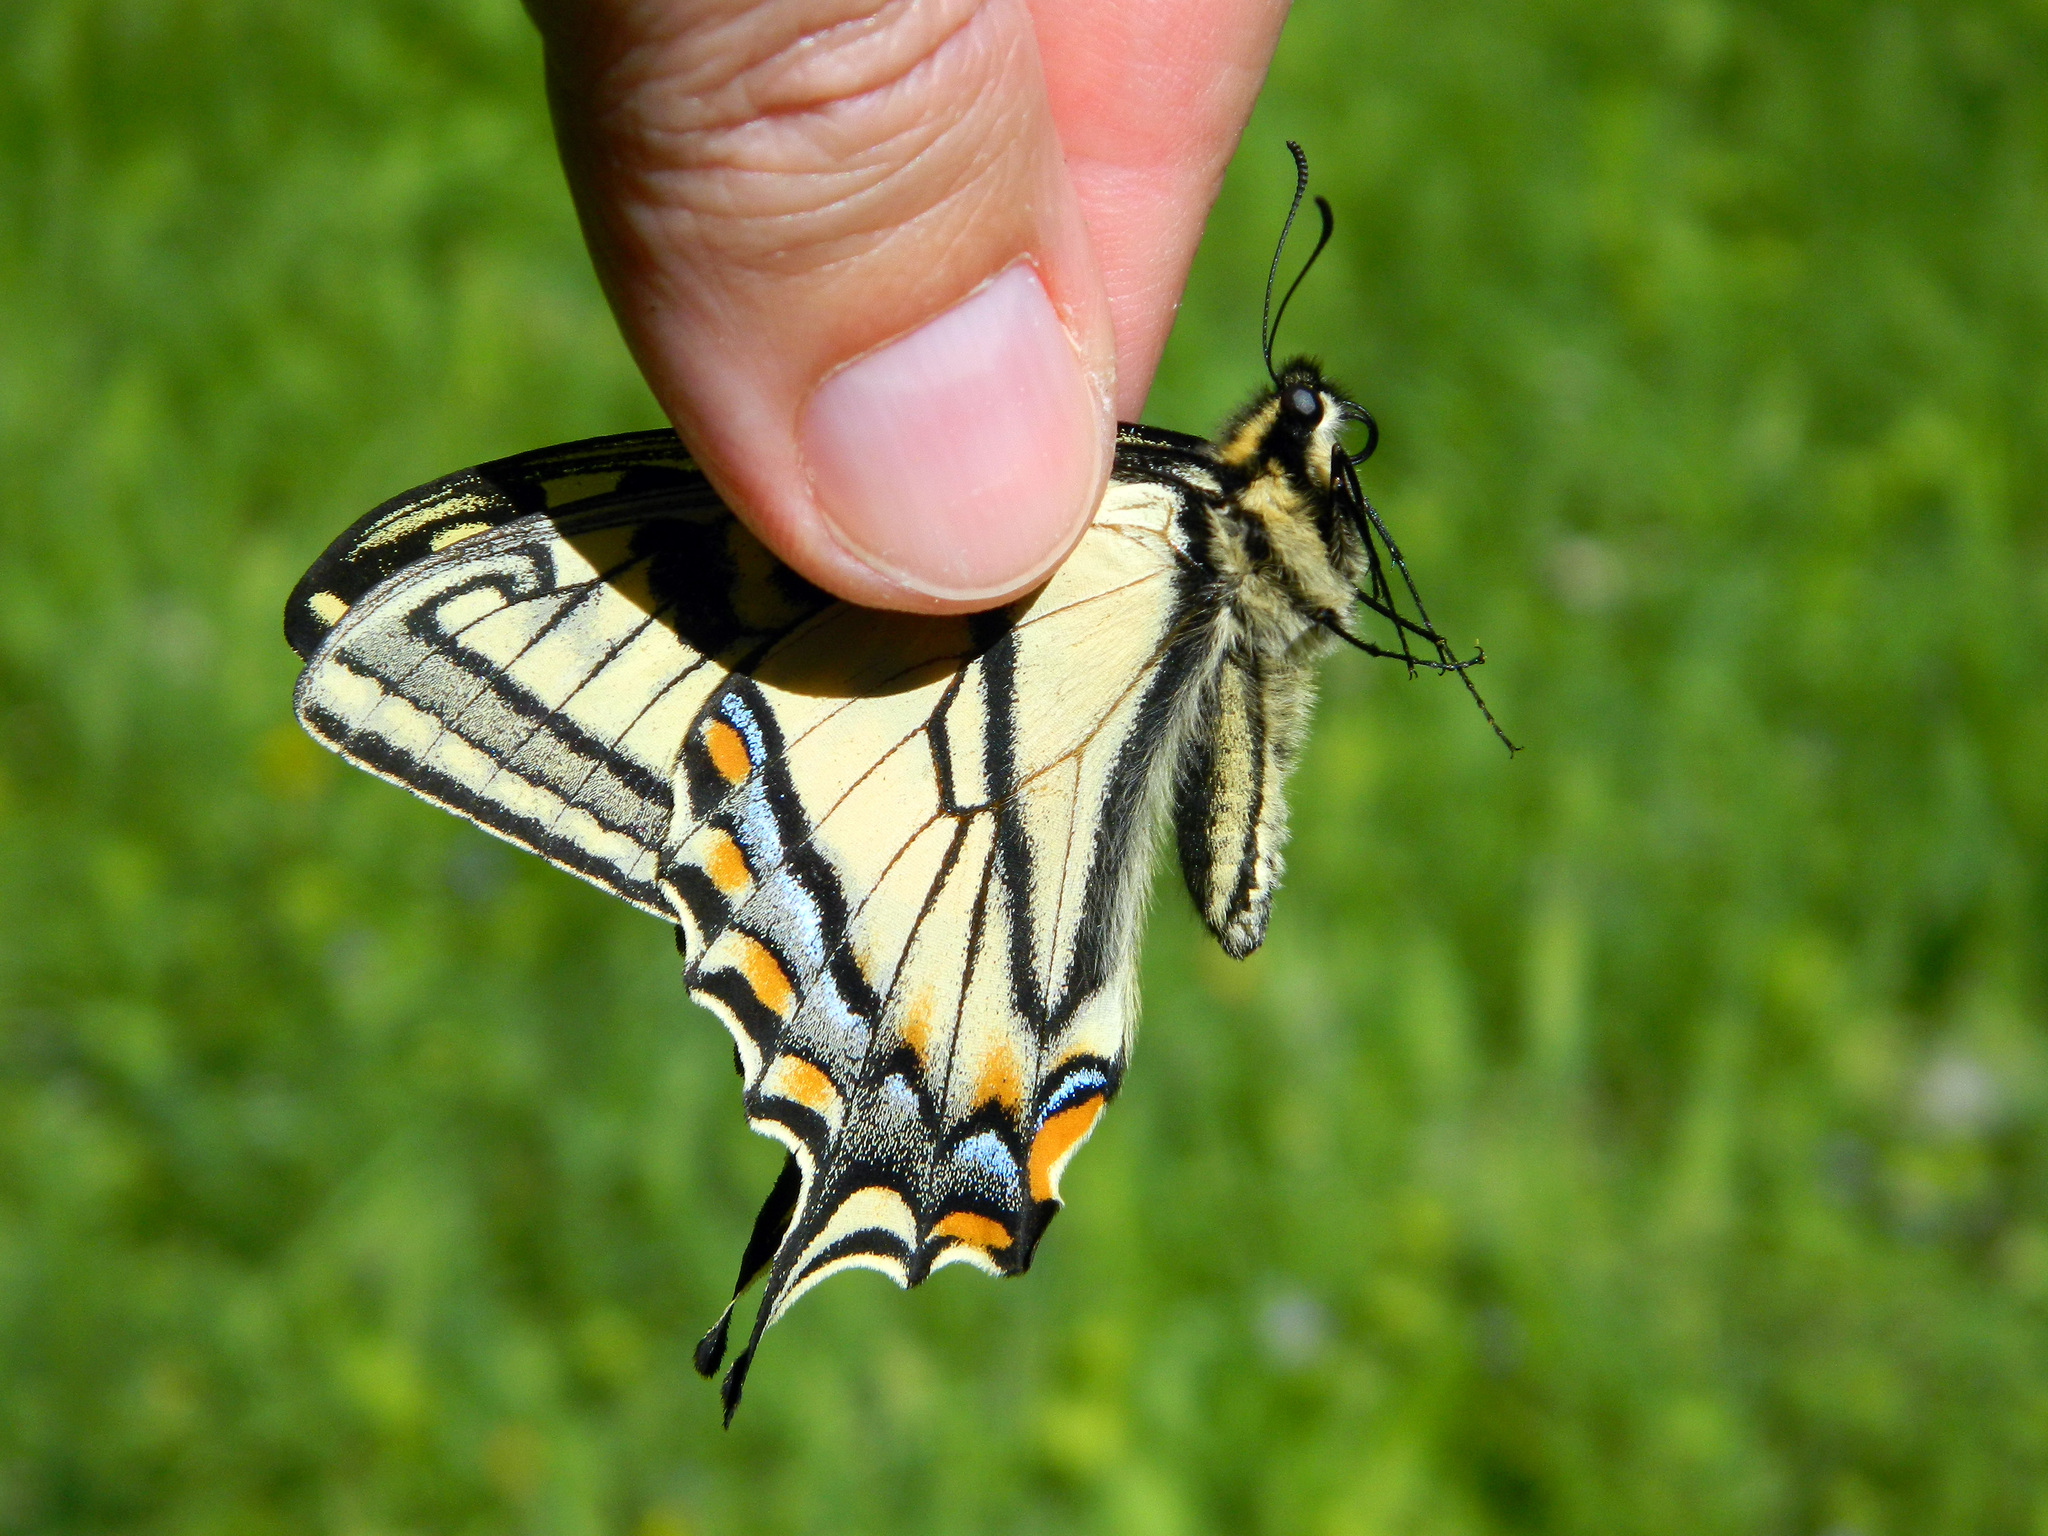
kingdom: Animalia
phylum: Arthropoda
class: Insecta
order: Lepidoptera
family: Papilionidae
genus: Papilio
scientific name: Papilio canadensis
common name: Canadian tiger swallowtail
